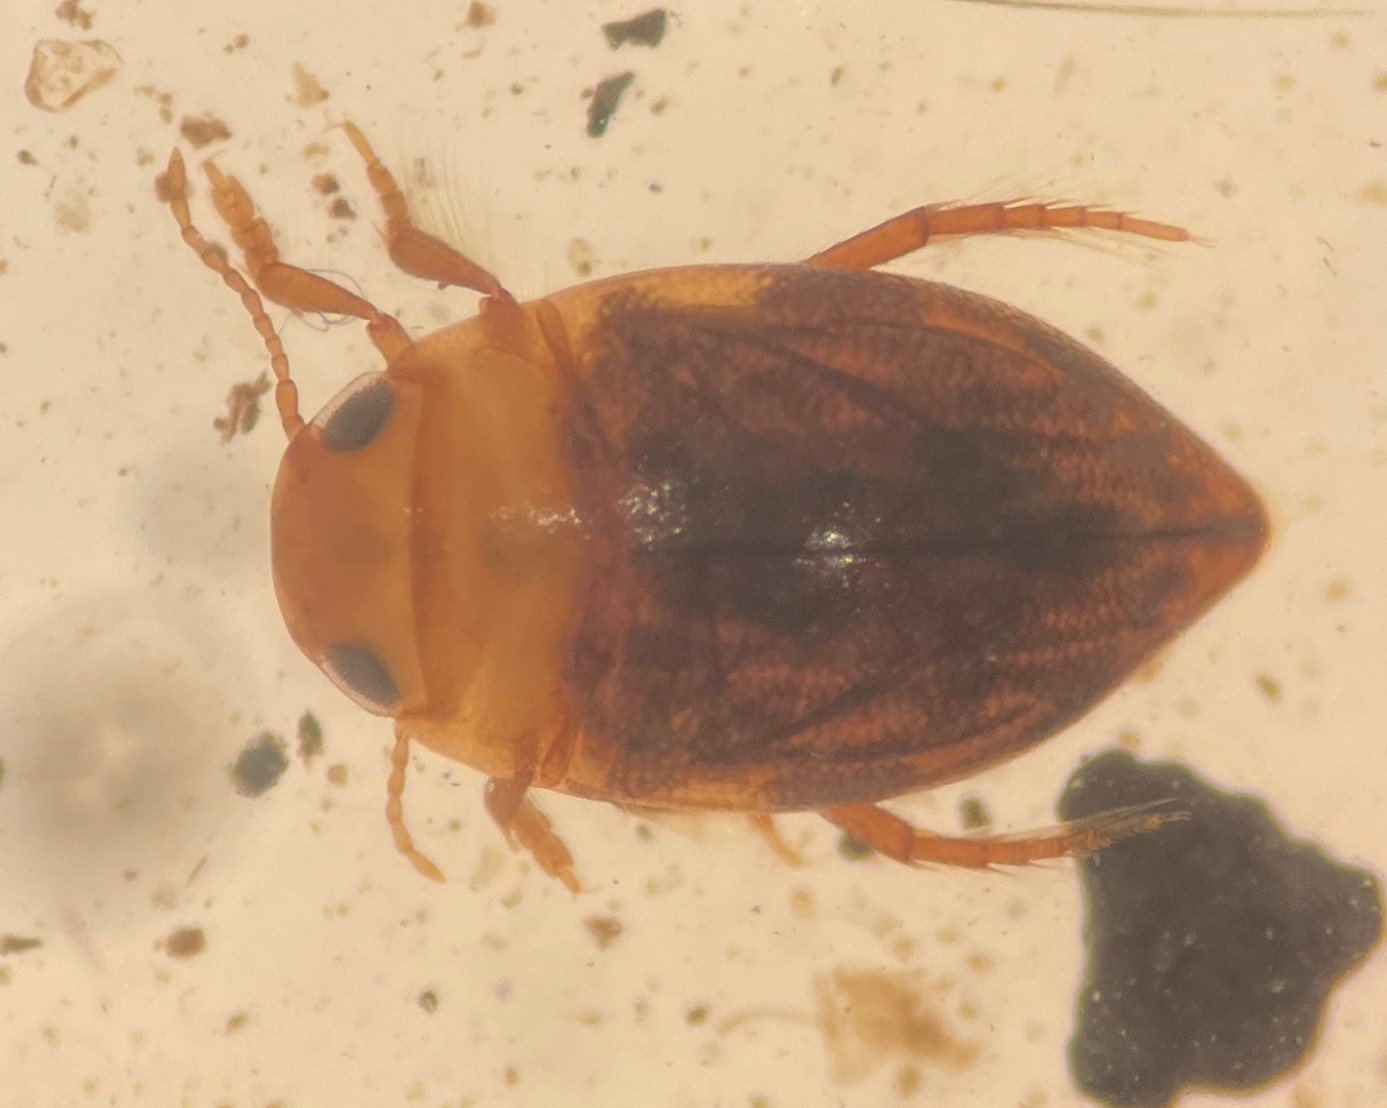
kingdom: Animalia
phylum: Arthropoda
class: Insecta
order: Coleoptera
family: Dytiscidae
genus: Neoporus
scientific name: Neoporus mellitus
